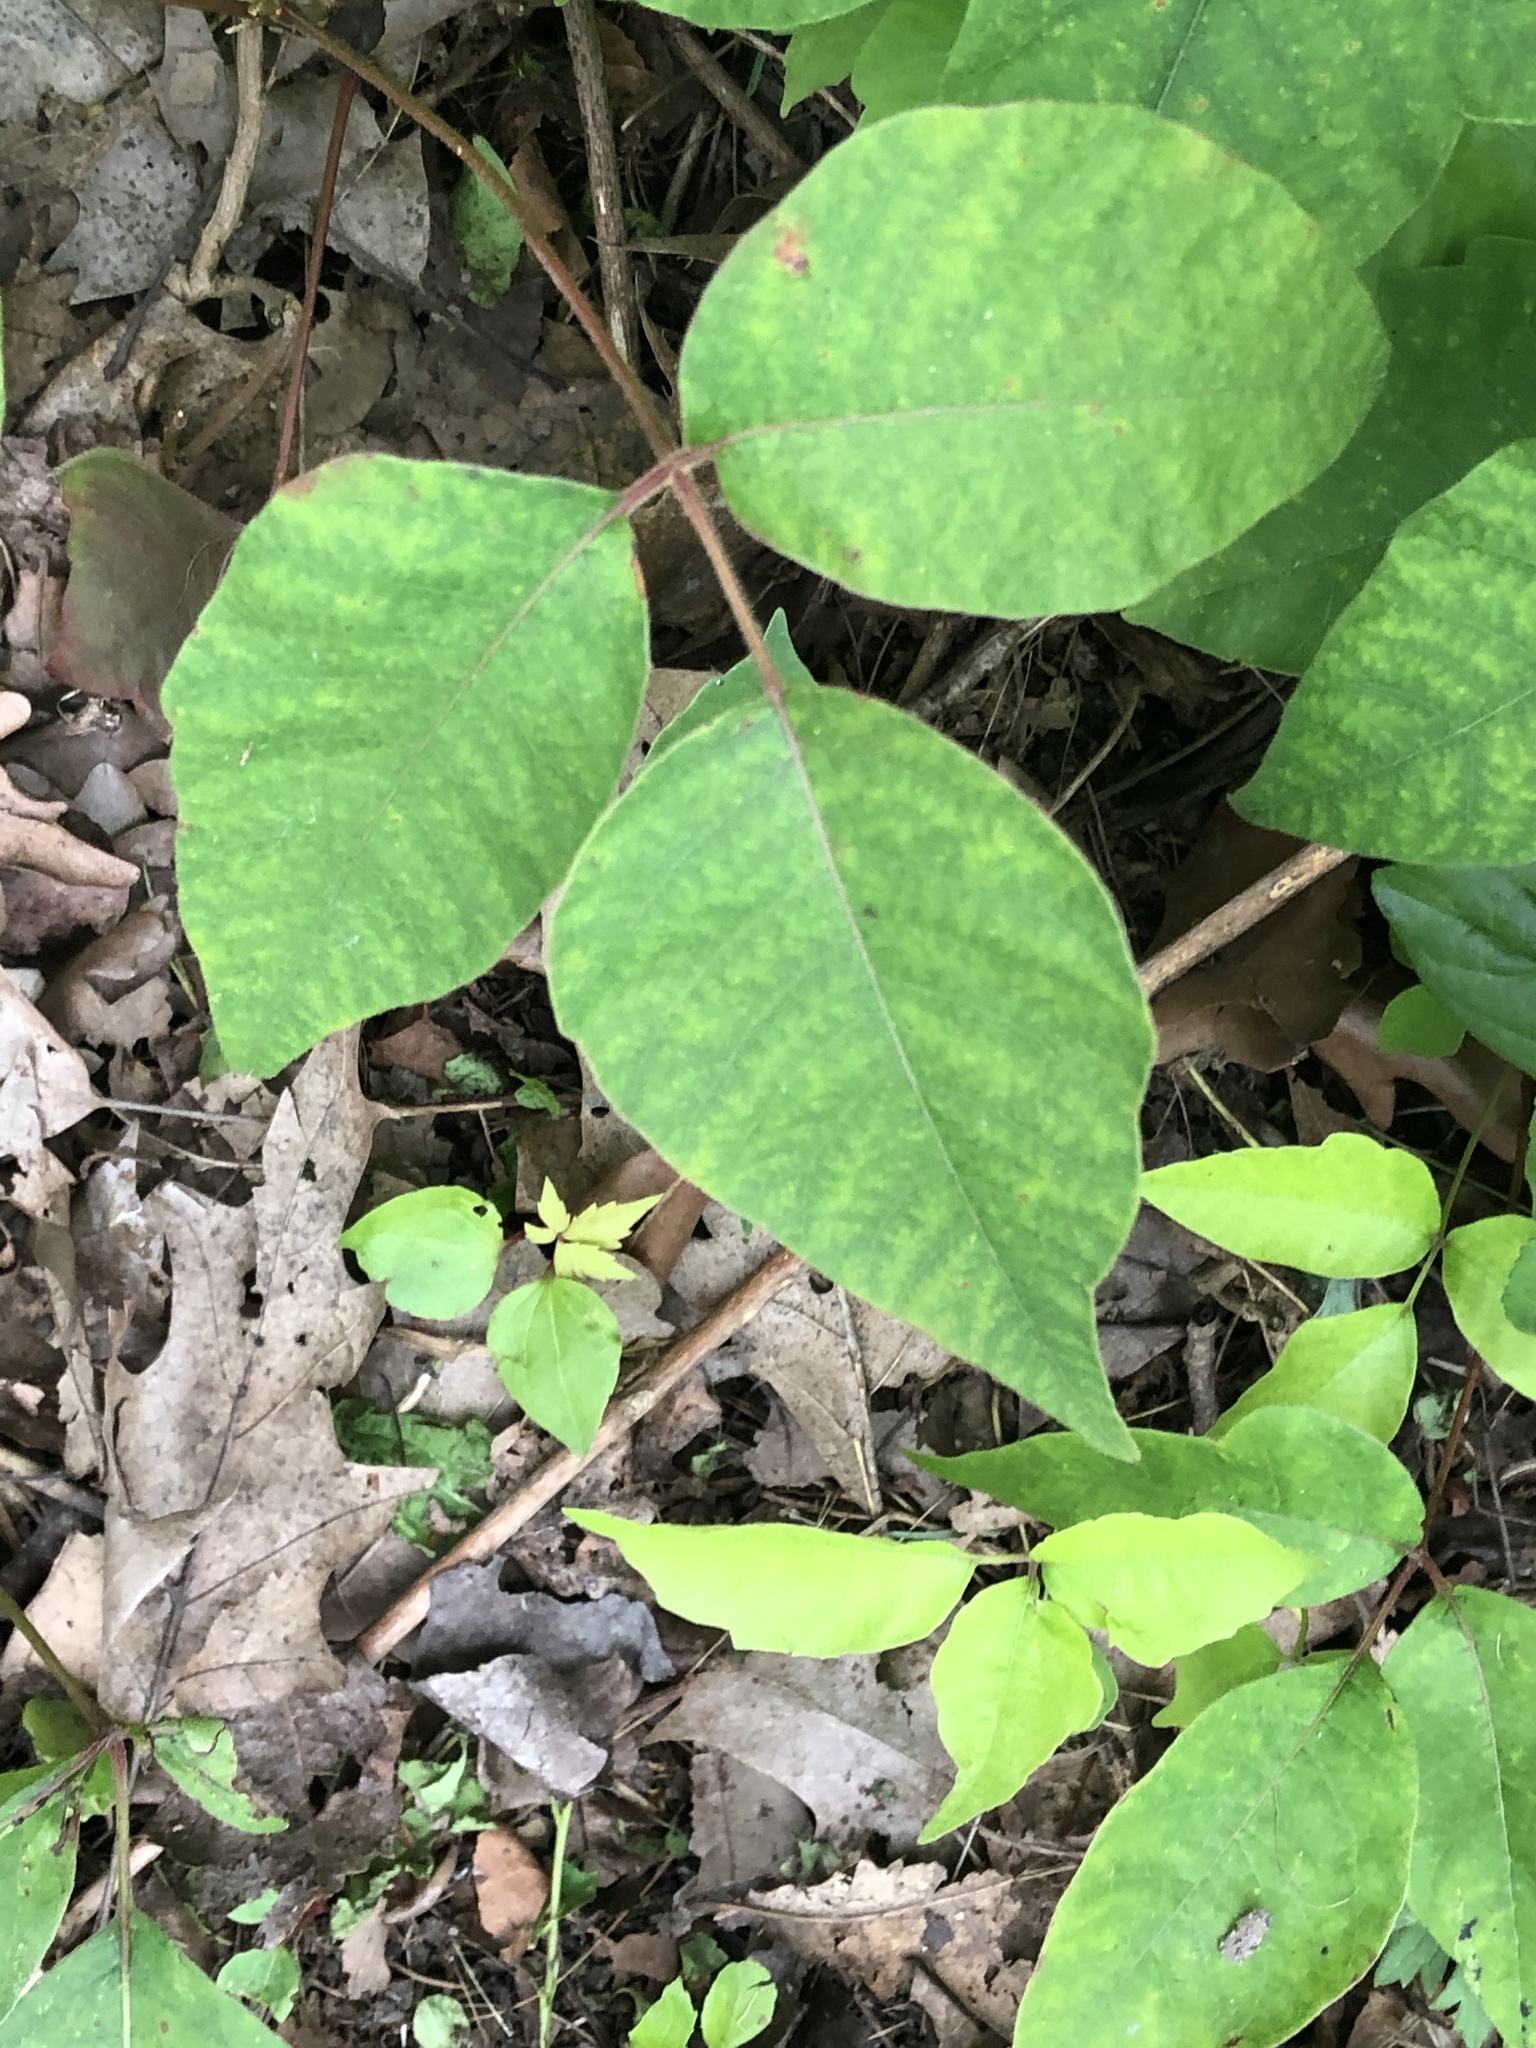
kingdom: Plantae
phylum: Tracheophyta
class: Magnoliopsida
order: Sapindales
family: Anacardiaceae
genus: Toxicodendron
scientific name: Toxicodendron radicans
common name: Poison ivy
